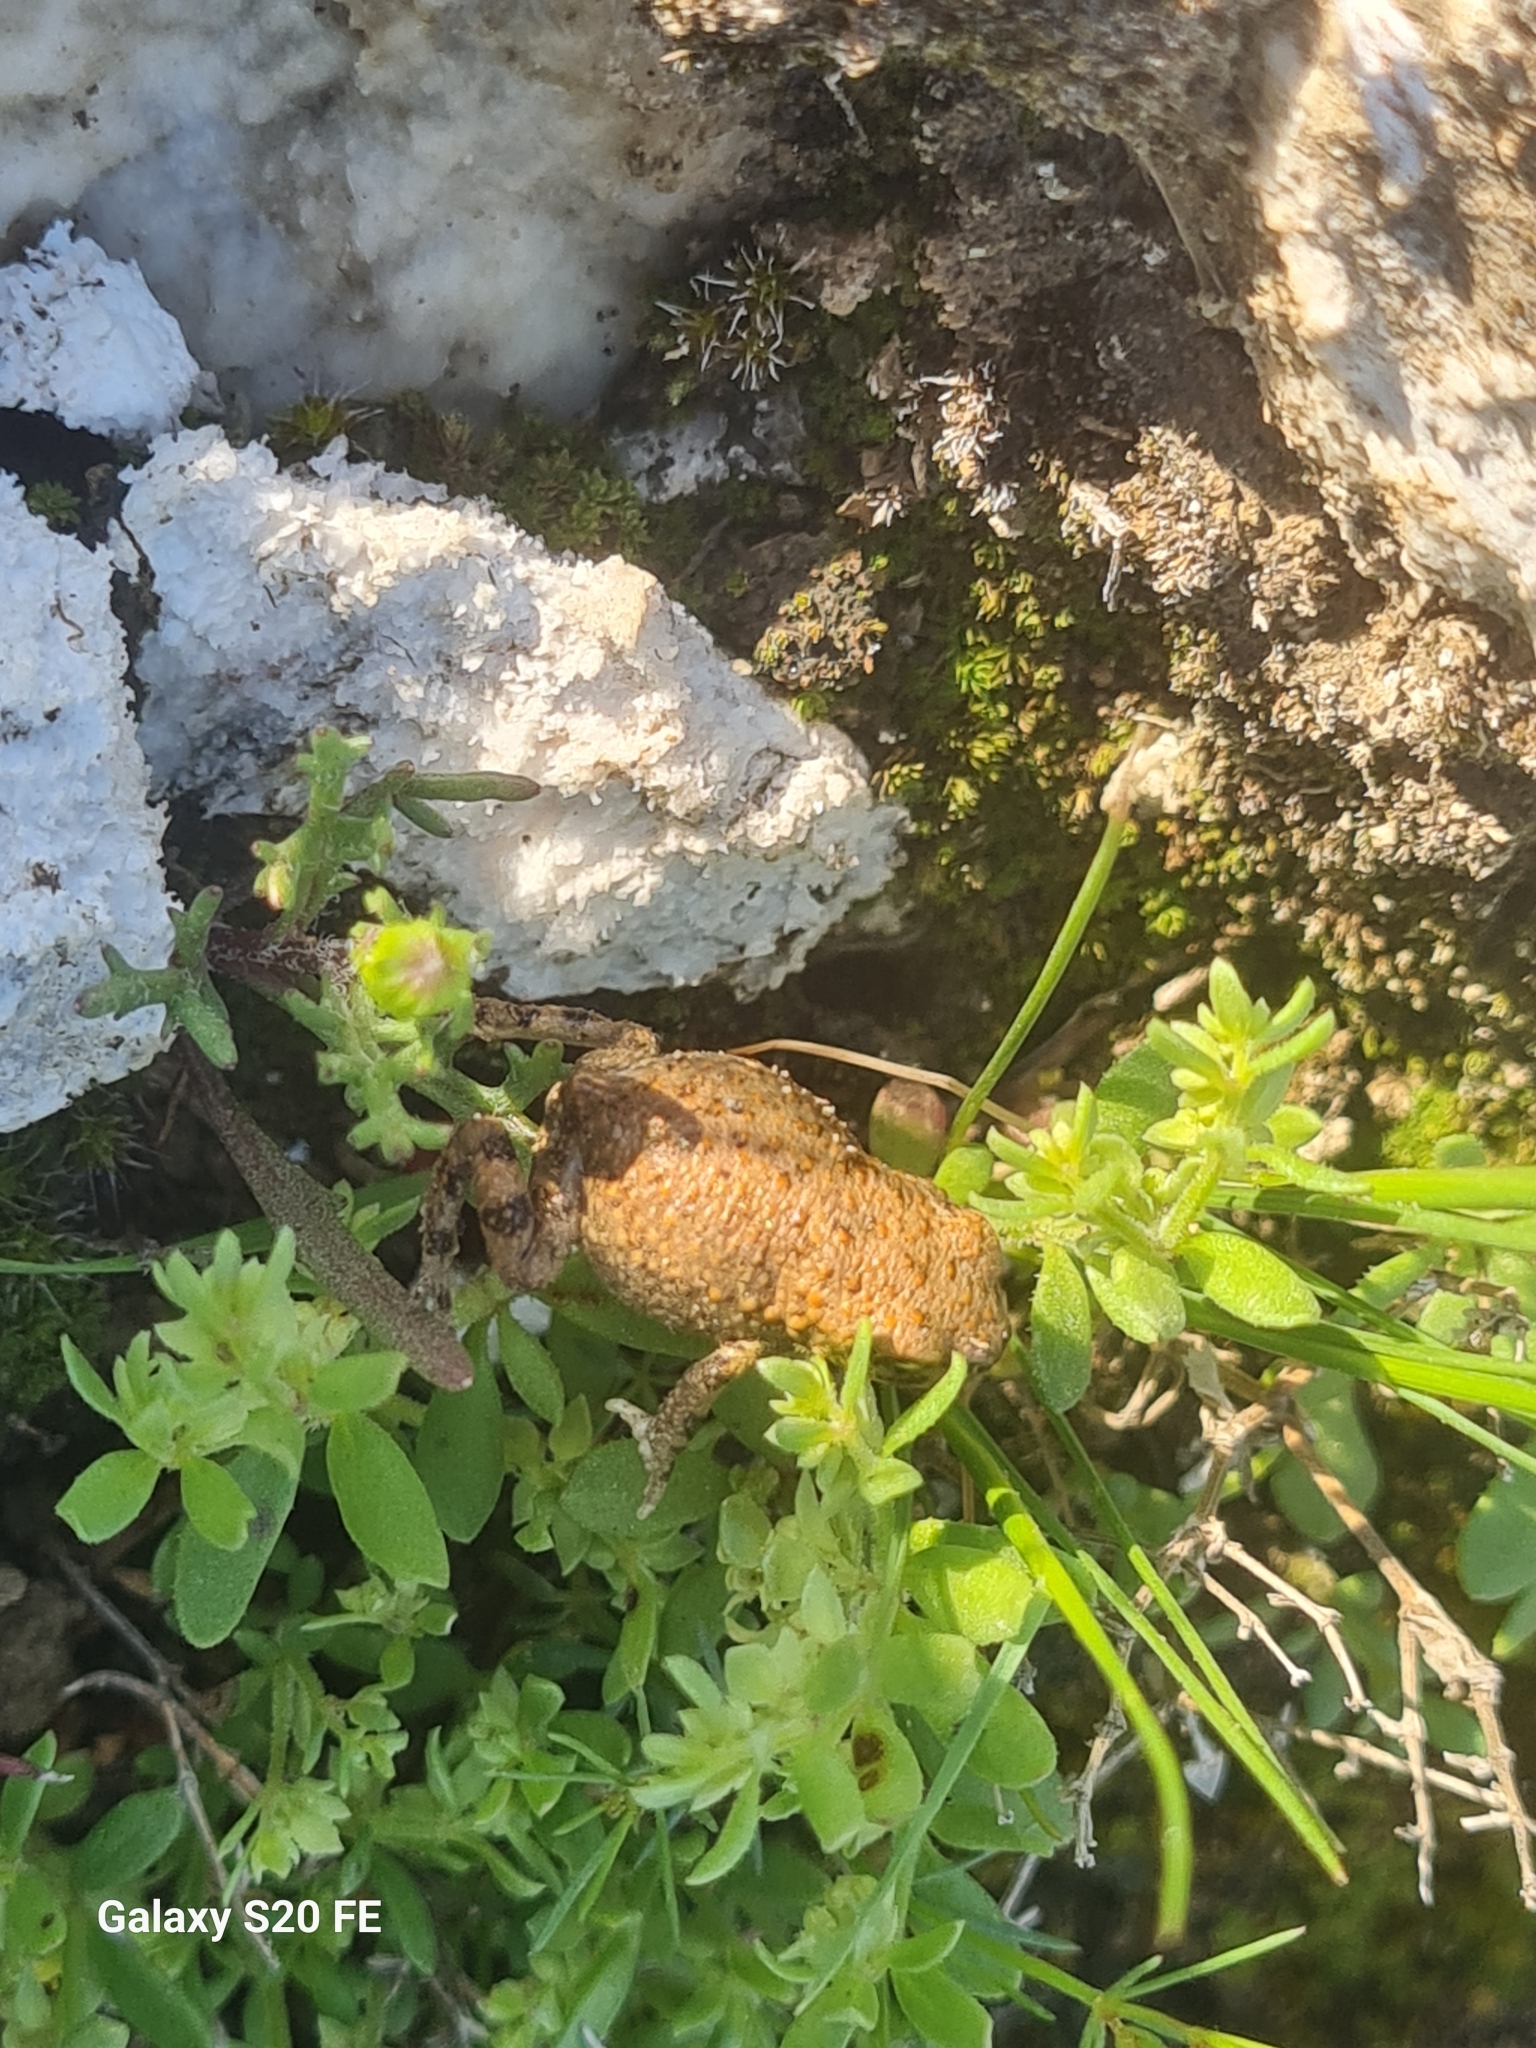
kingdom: Animalia
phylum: Chordata
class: Amphibia
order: Anura
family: Bufonidae
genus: Bufotes
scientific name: Bufotes luristanicus
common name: Lorestan earless toad
